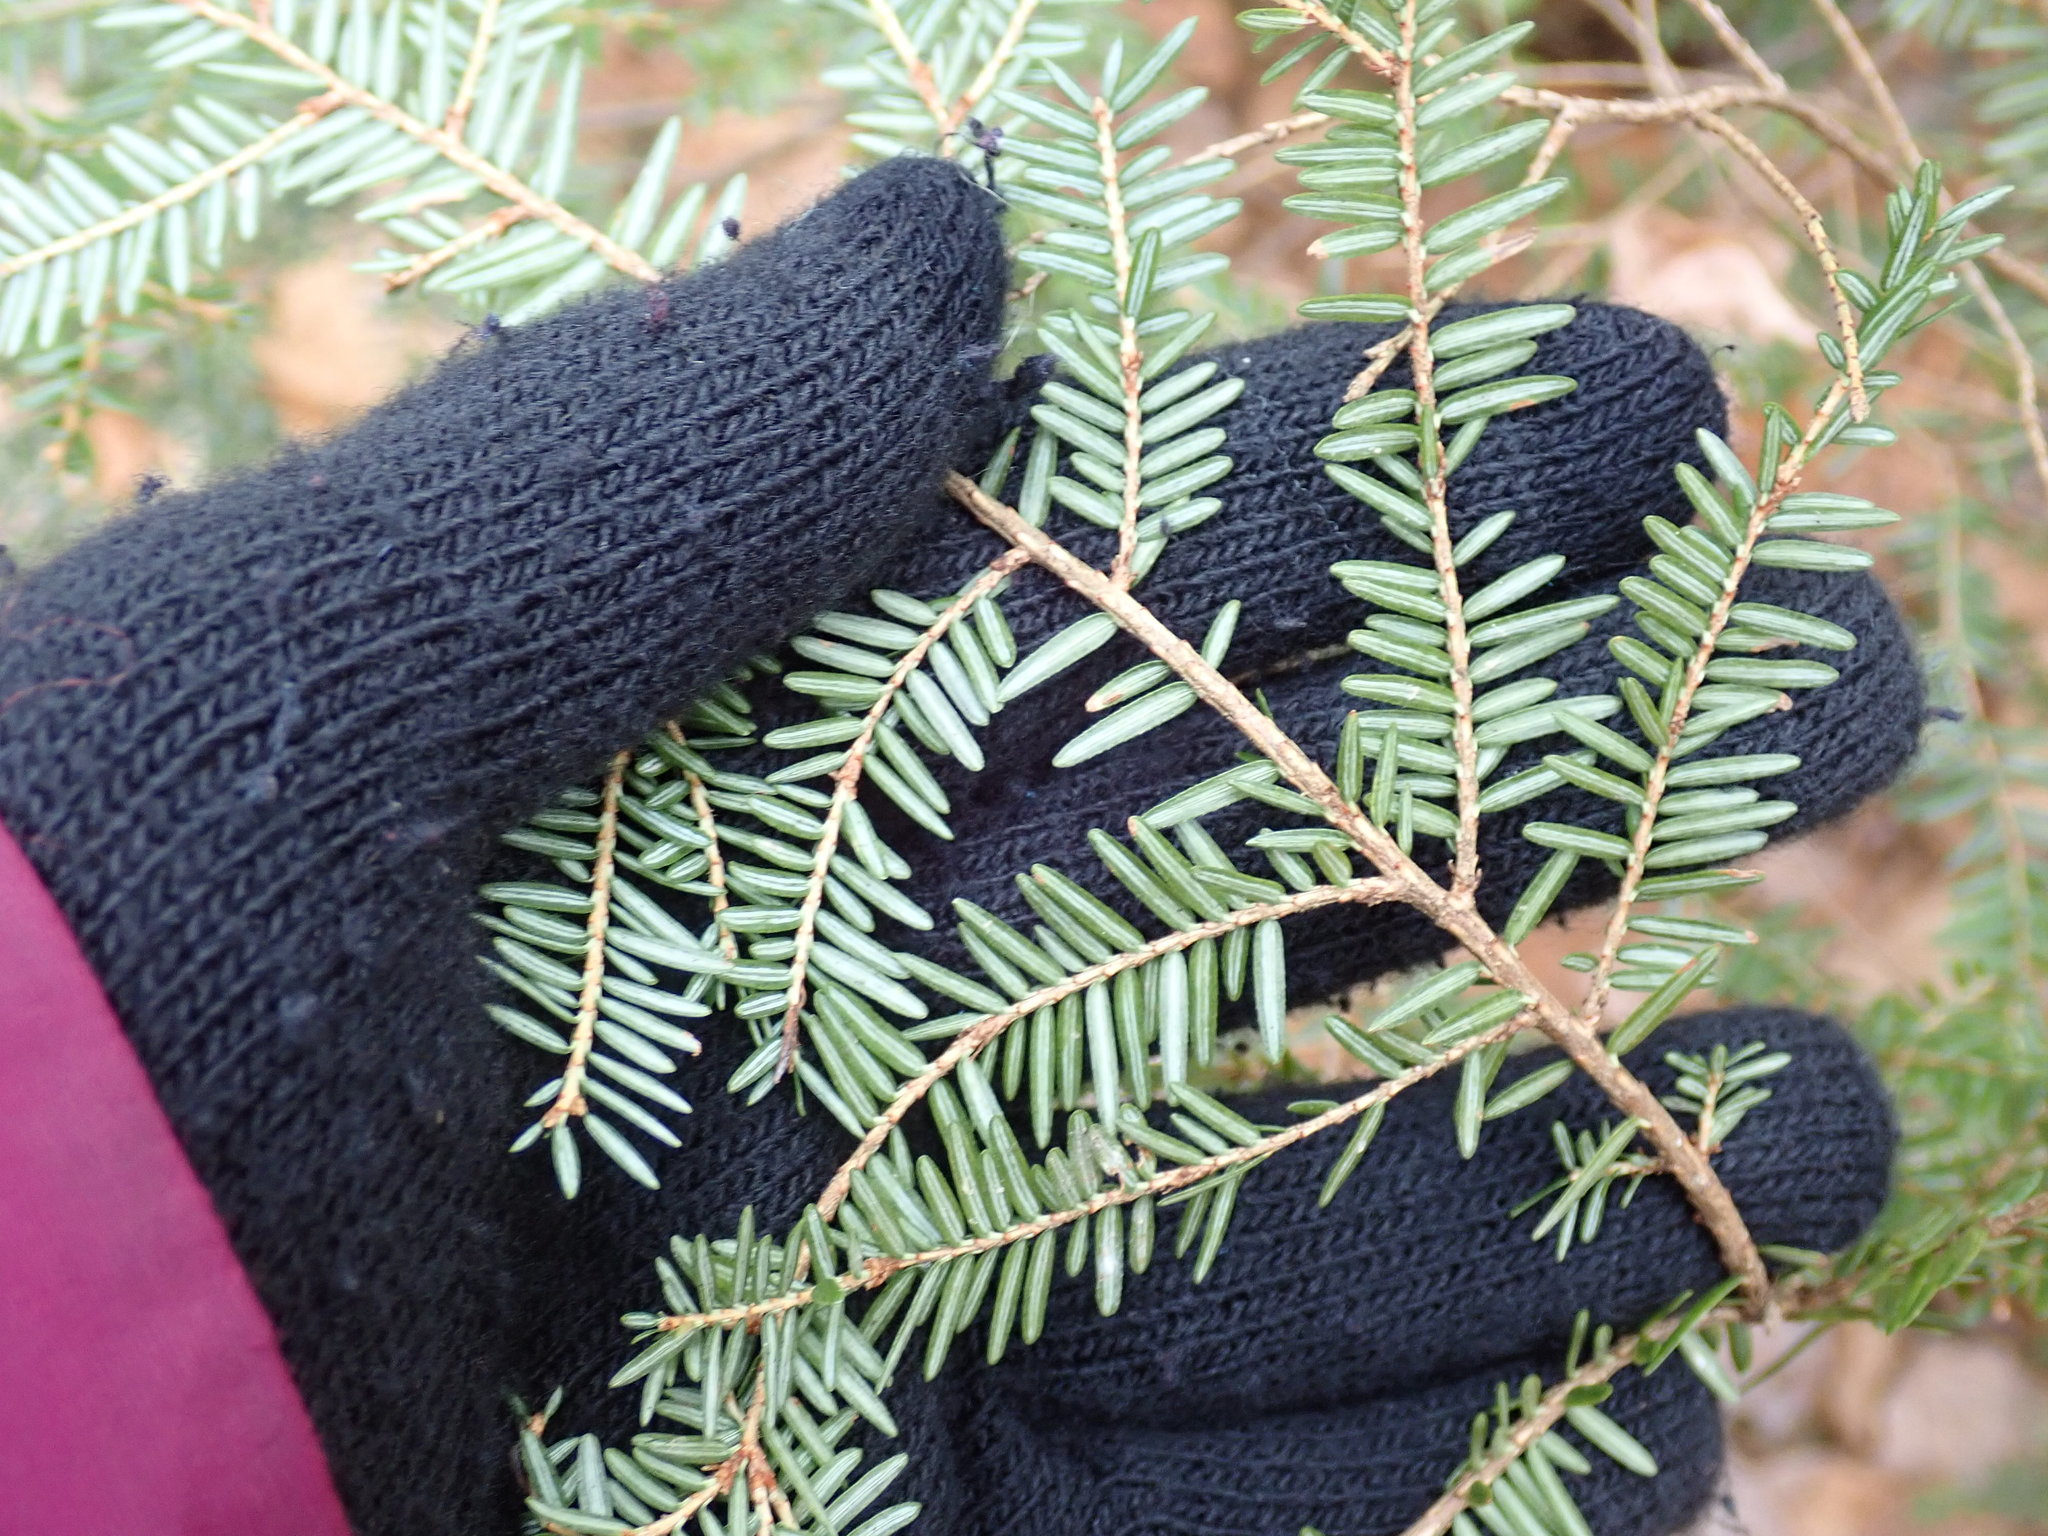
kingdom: Plantae
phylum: Tracheophyta
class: Pinopsida
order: Pinales
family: Pinaceae
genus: Tsuga
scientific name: Tsuga canadensis
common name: Eastern hemlock
